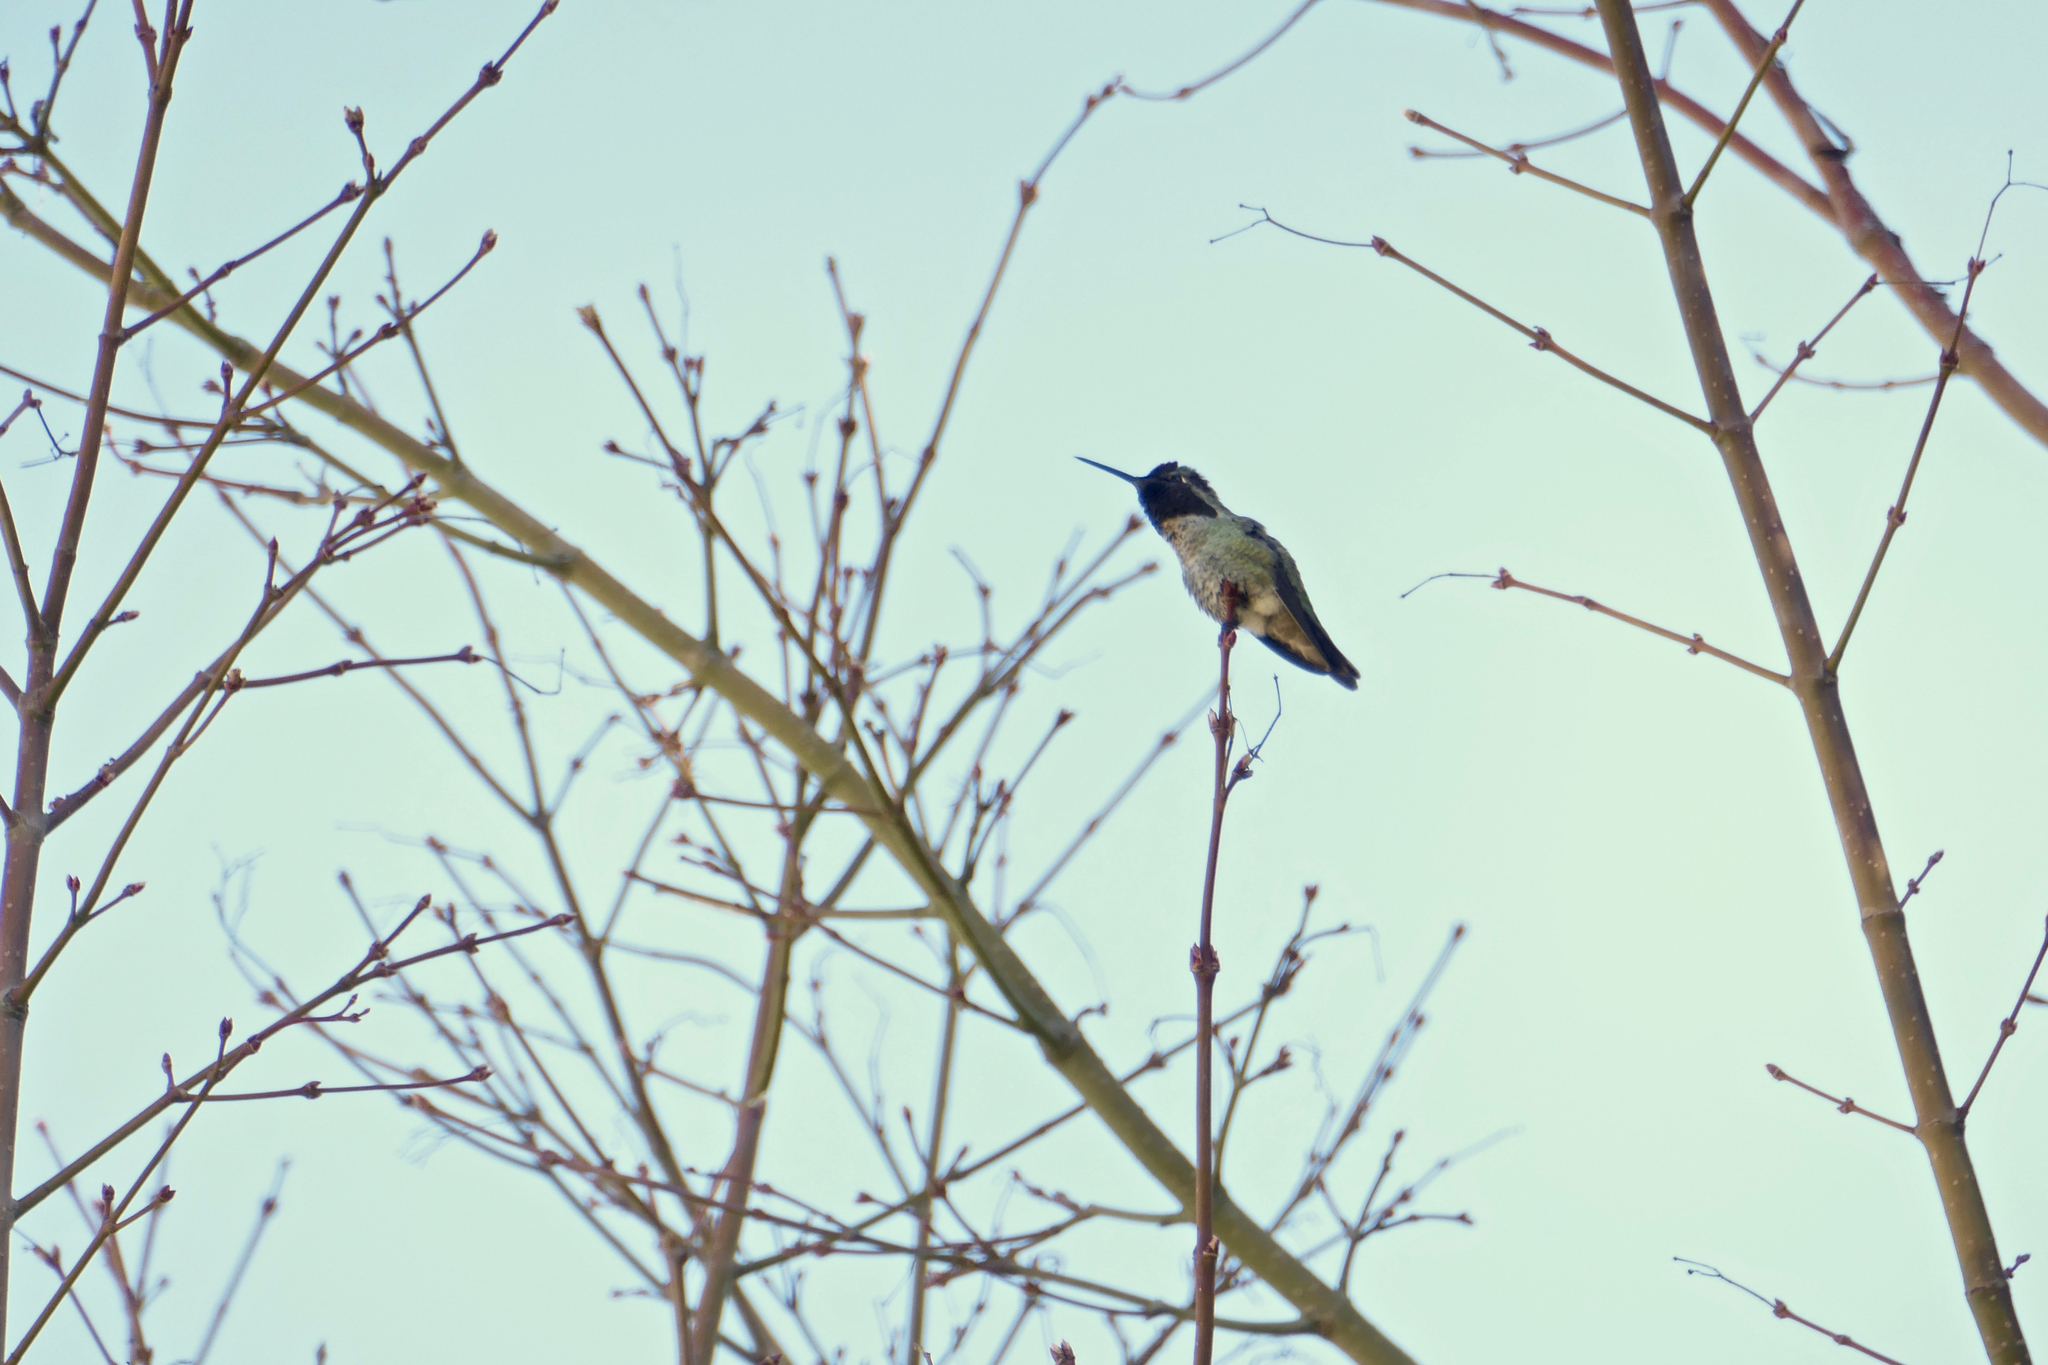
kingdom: Animalia
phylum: Chordata
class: Aves
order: Apodiformes
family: Trochilidae
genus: Calypte
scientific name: Calypte anna
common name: Anna's hummingbird
